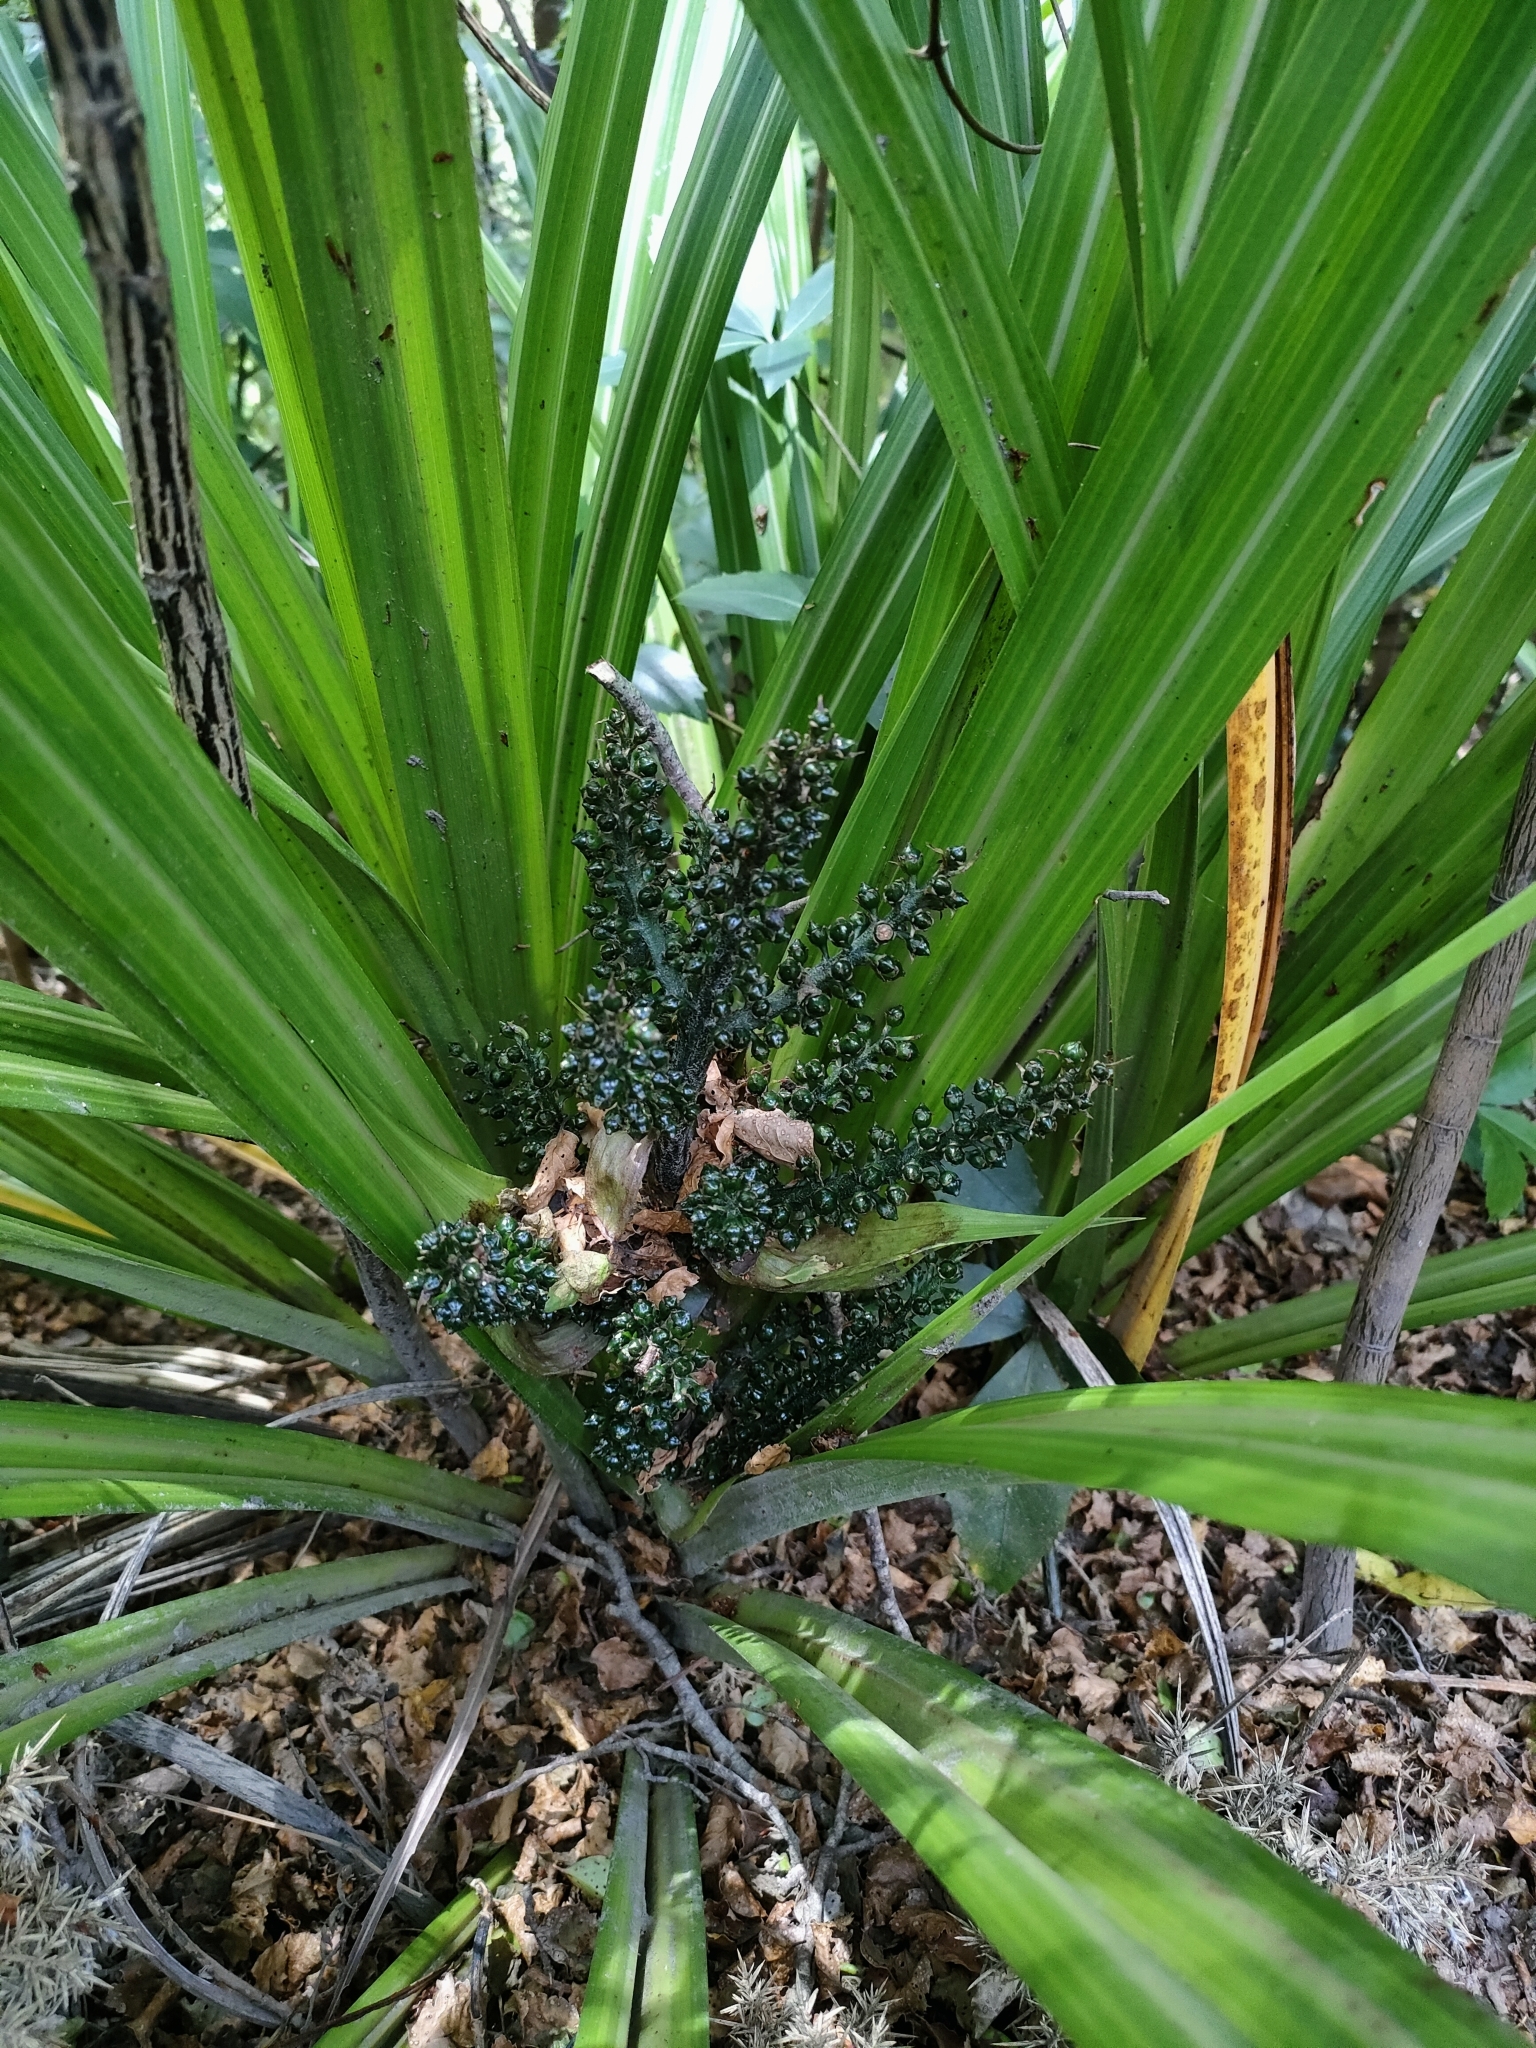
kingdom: Plantae
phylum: Tracheophyta
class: Liliopsida
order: Asparagales
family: Asteliaceae
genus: Astelia
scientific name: Astelia fragrans
